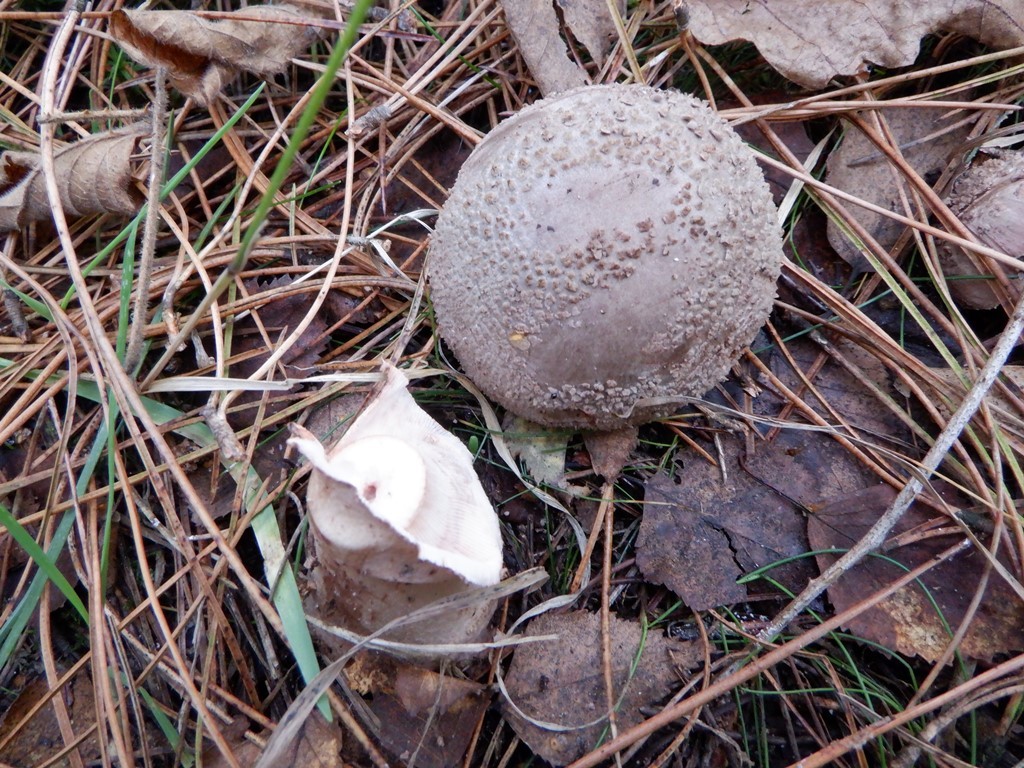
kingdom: Fungi
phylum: Basidiomycota
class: Agaricomycetes
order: Agaricales
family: Amanitaceae
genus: Amanita
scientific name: Amanita rubescens
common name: Blusher
